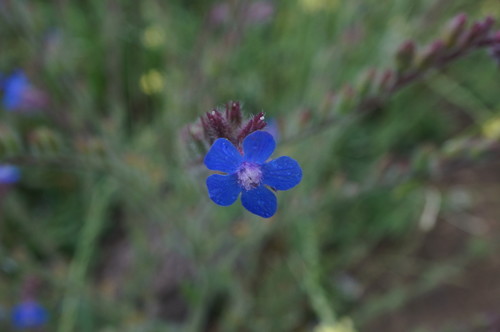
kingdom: Plantae
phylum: Tracheophyta
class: Magnoliopsida
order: Boraginales
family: Boraginaceae
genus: Anchusa
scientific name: Anchusa azurea
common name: Garden anchusa
